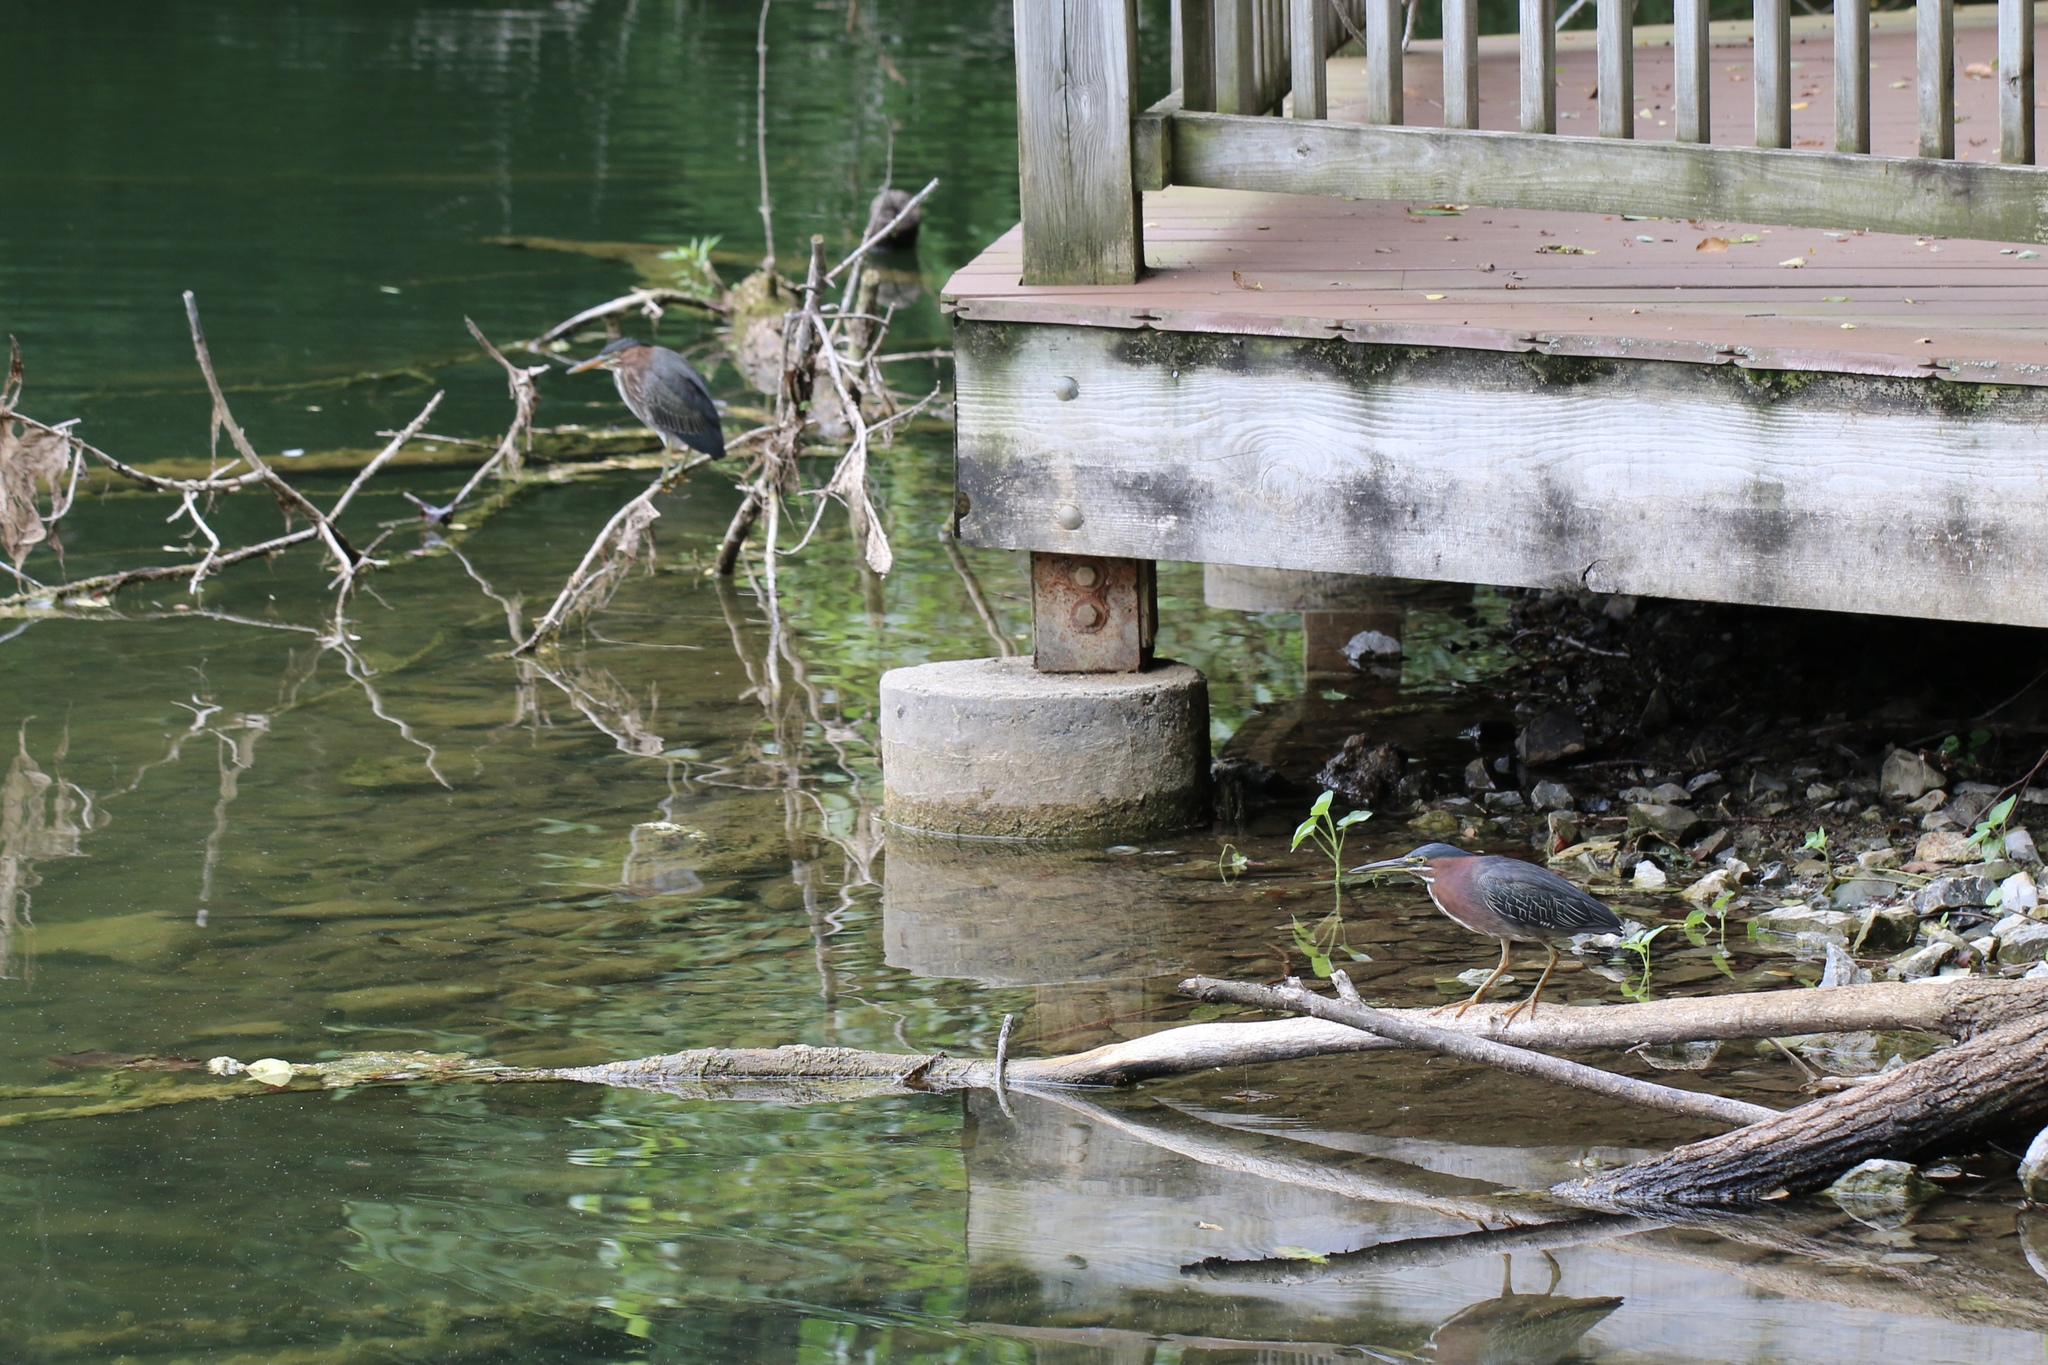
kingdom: Animalia
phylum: Chordata
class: Aves
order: Pelecaniformes
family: Ardeidae
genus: Butorides
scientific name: Butorides virescens
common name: Green heron
